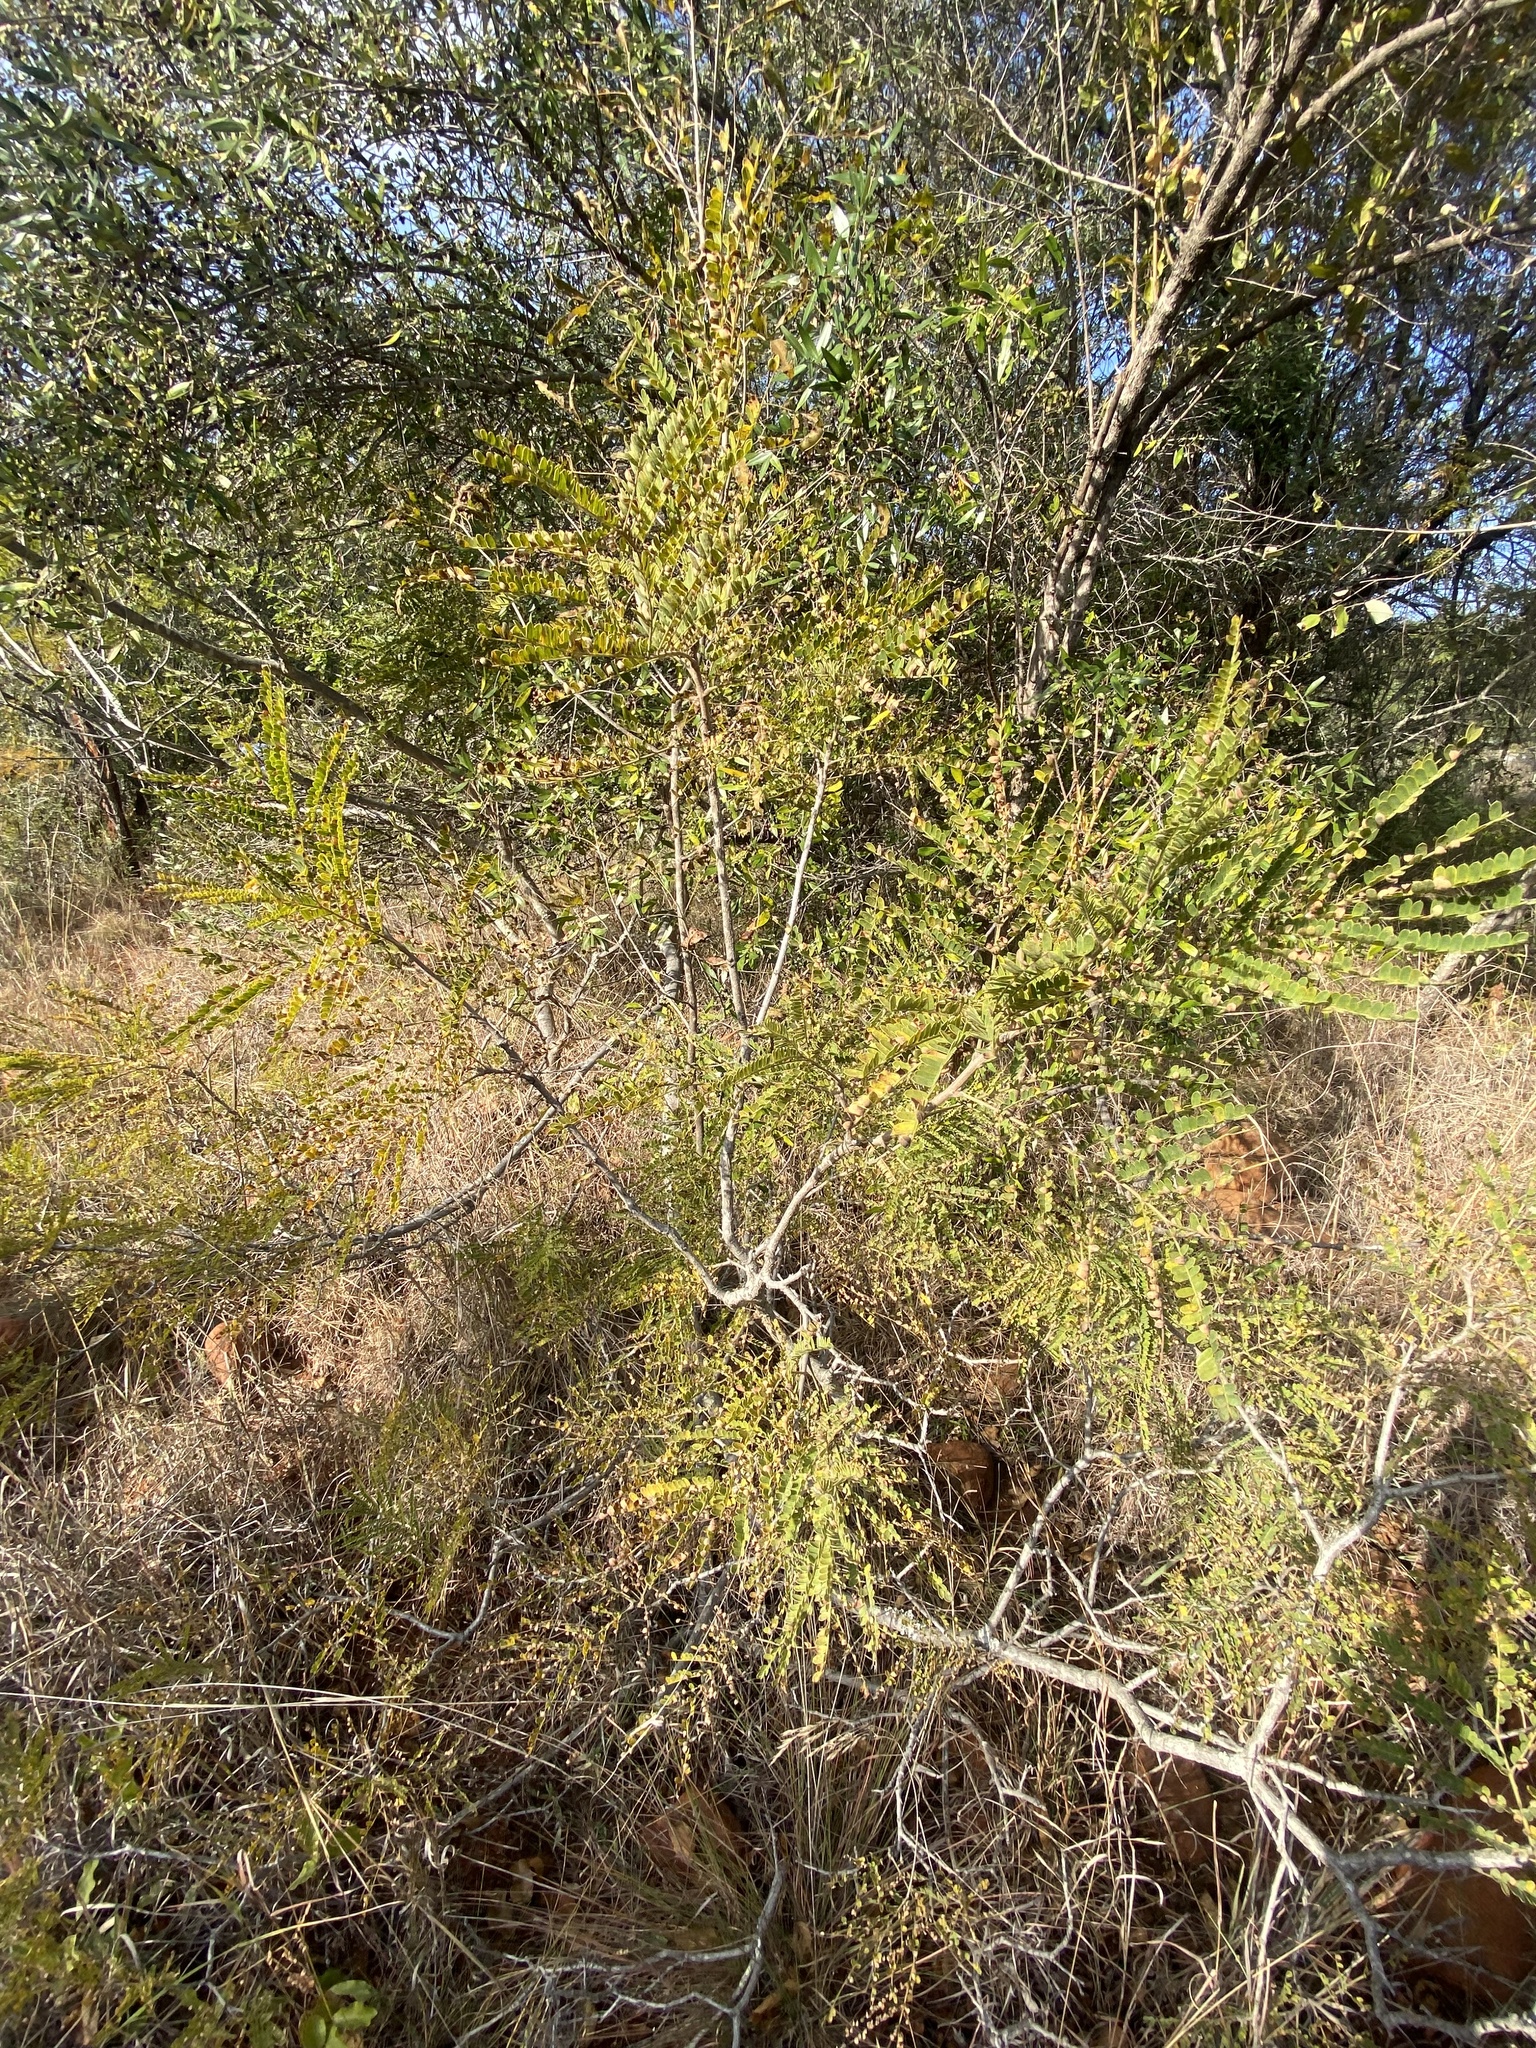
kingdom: Plantae
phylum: Tracheophyta
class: Magnoliopsida
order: Fabales
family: Fabaceae
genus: Peltophorum
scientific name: Peltophorum africanum
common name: African black wattle
